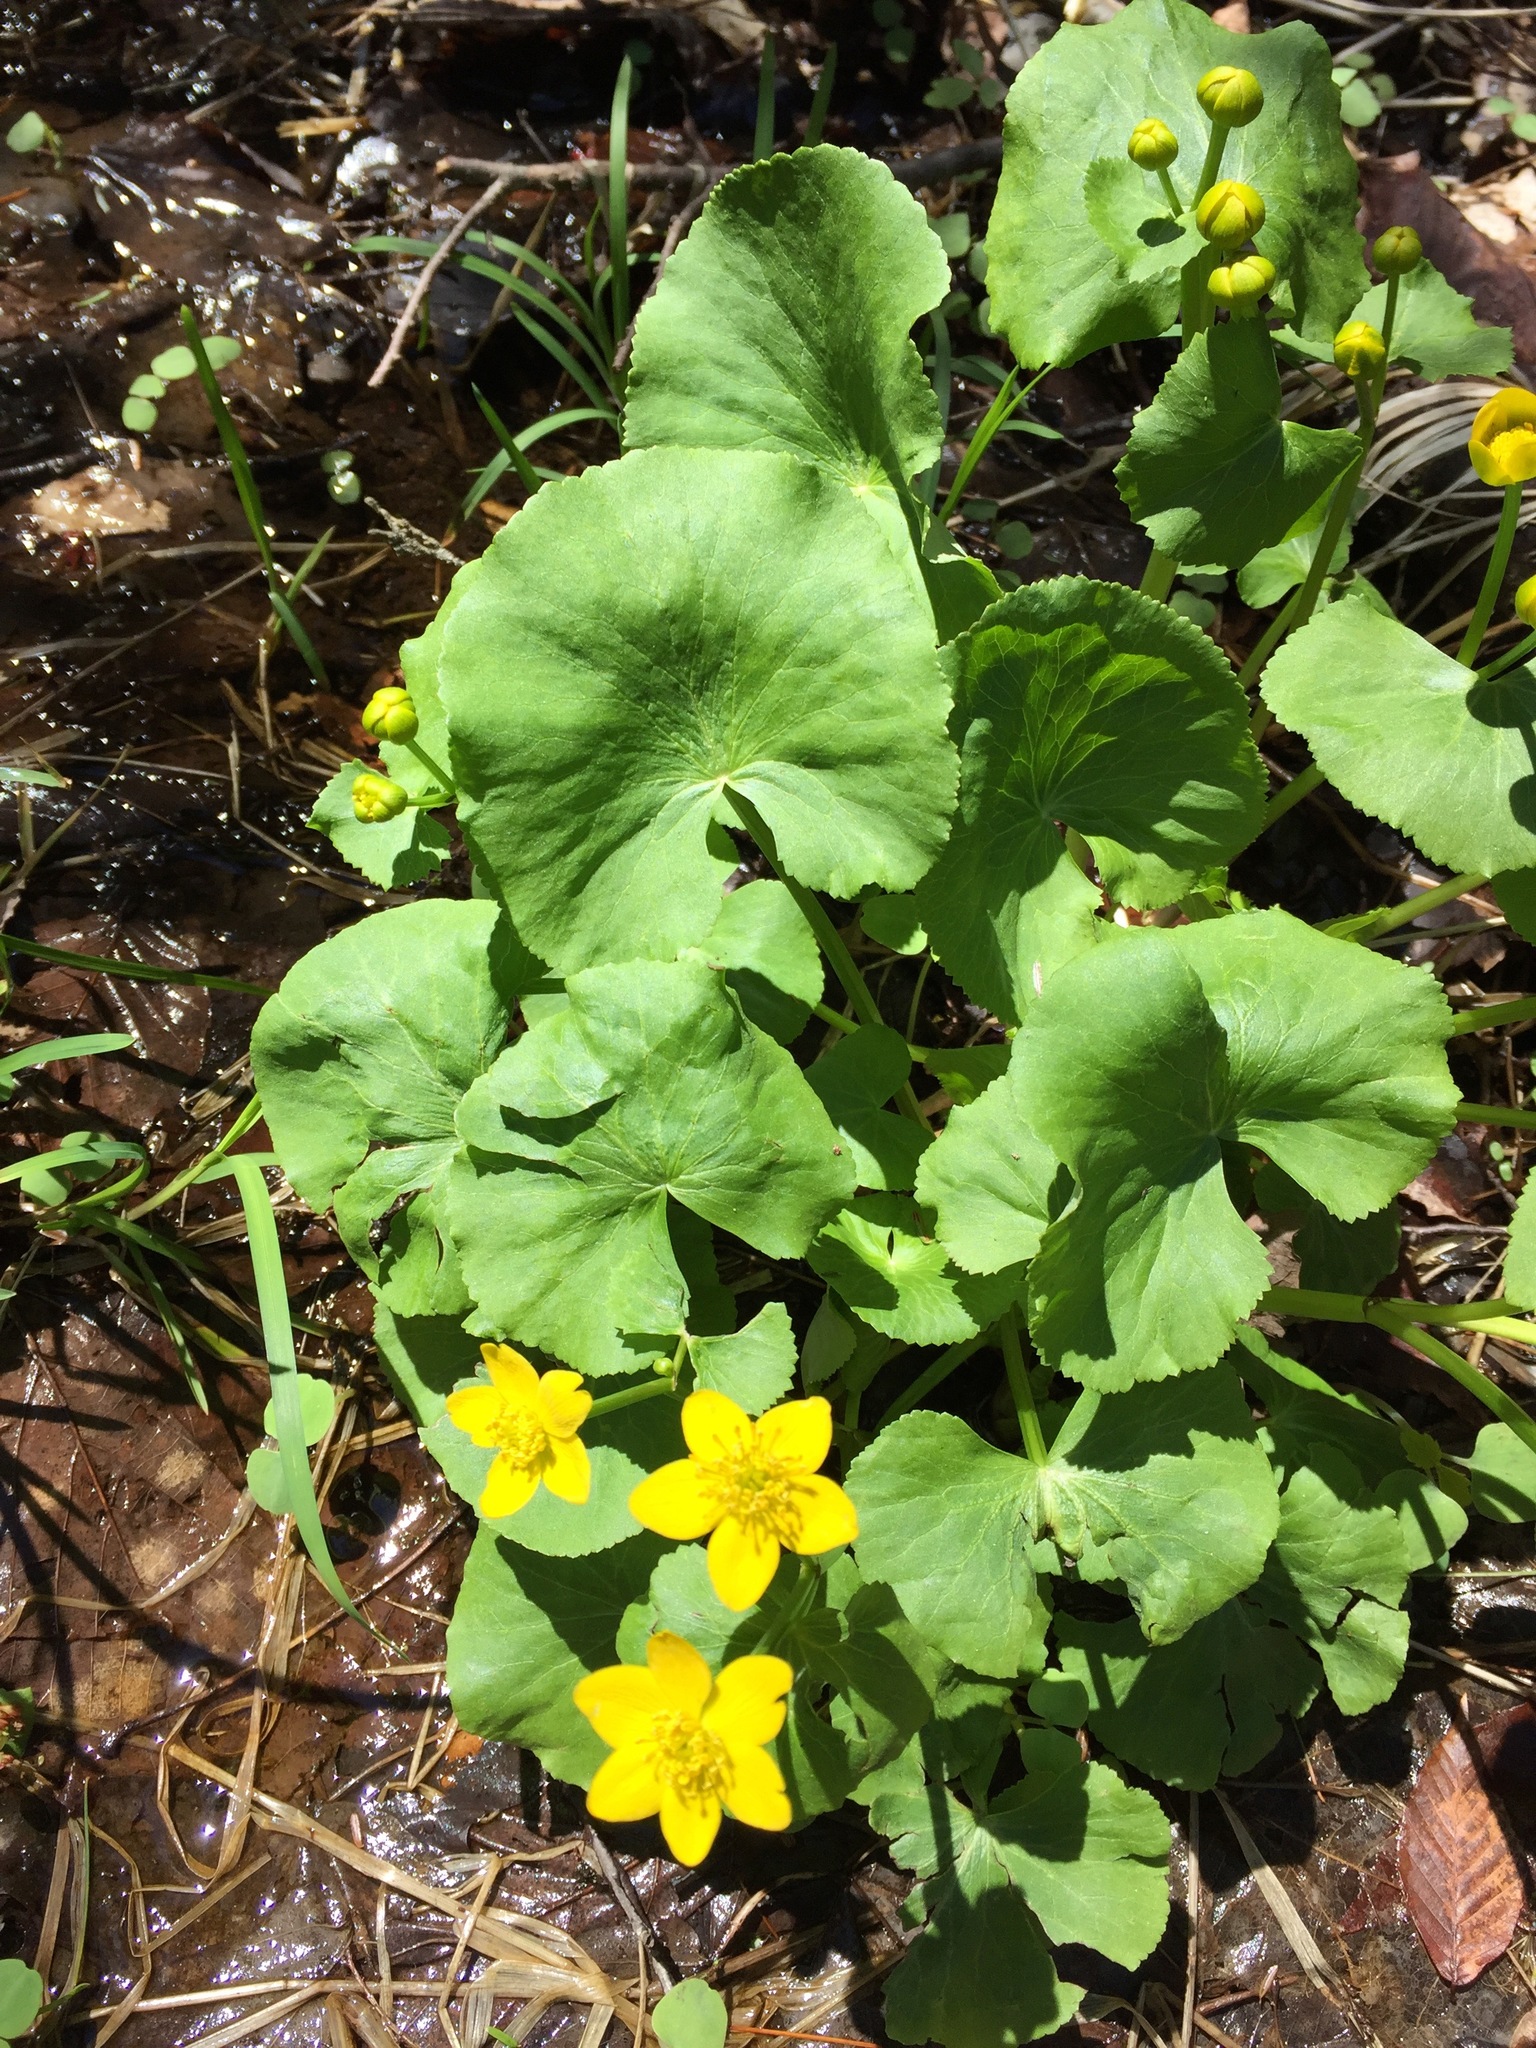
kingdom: Plantae
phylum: Tracheophyta
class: Magnoliopsida
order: Ranunculales
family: Ranunculaceae
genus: Caltha
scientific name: Caltha palustris
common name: Marsh marigold
